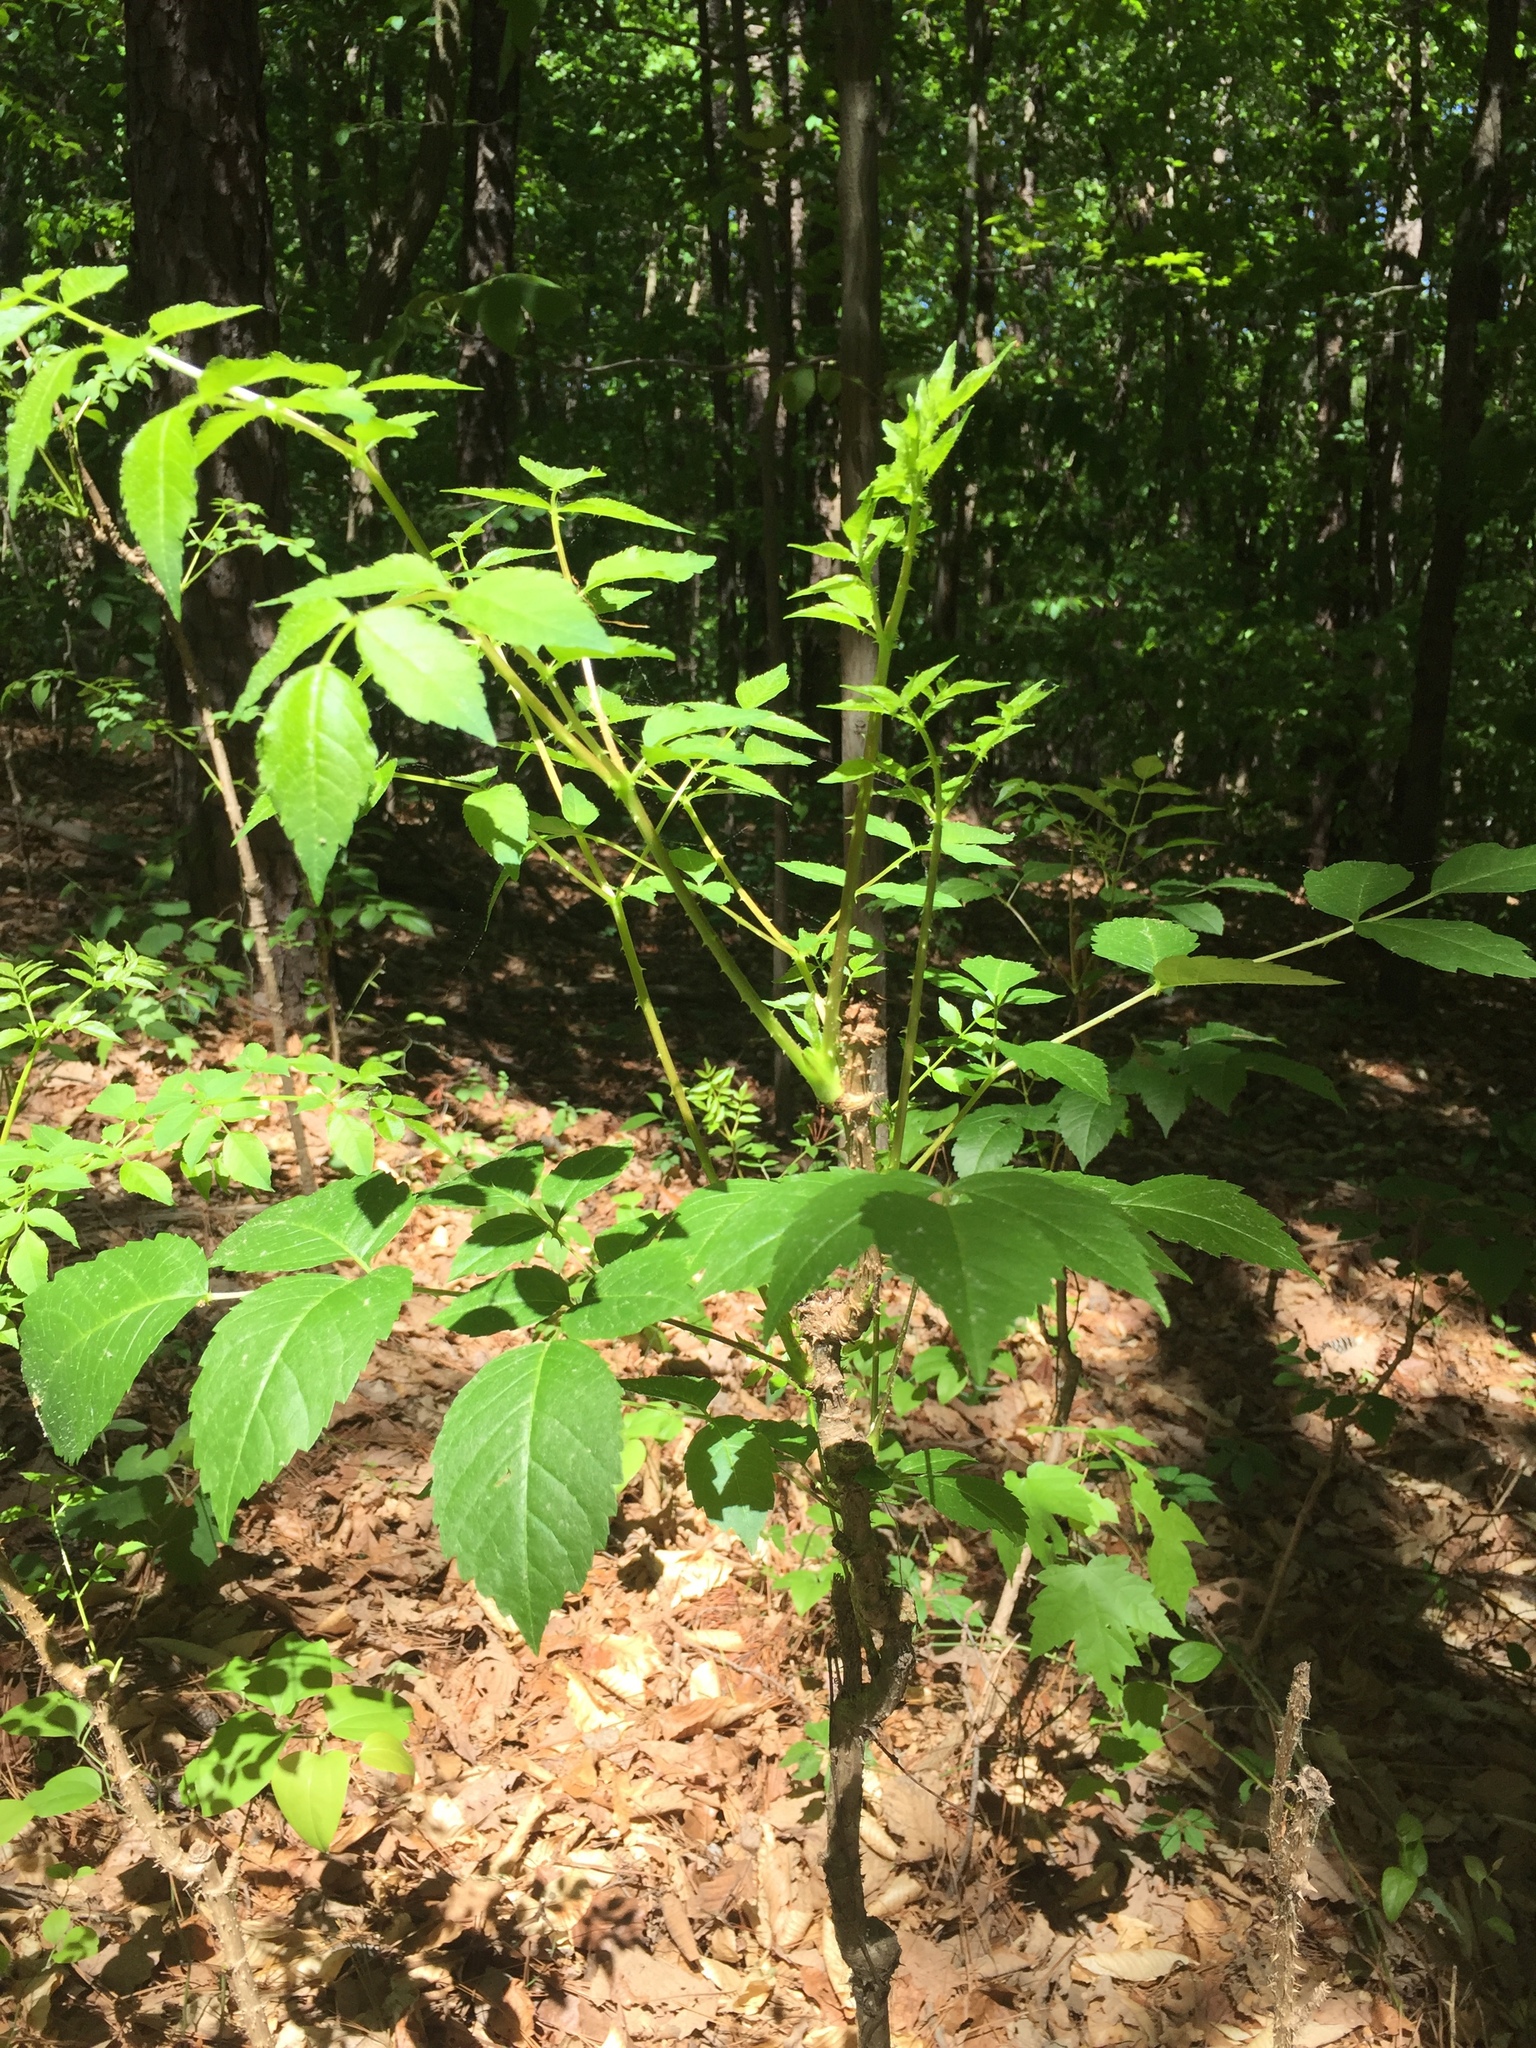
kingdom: Plantae
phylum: Tracheophyta
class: Magnoliopsida
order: Apiales
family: Araliaceae
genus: Aralia
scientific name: Aralia spinosa
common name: Hercules'-club
